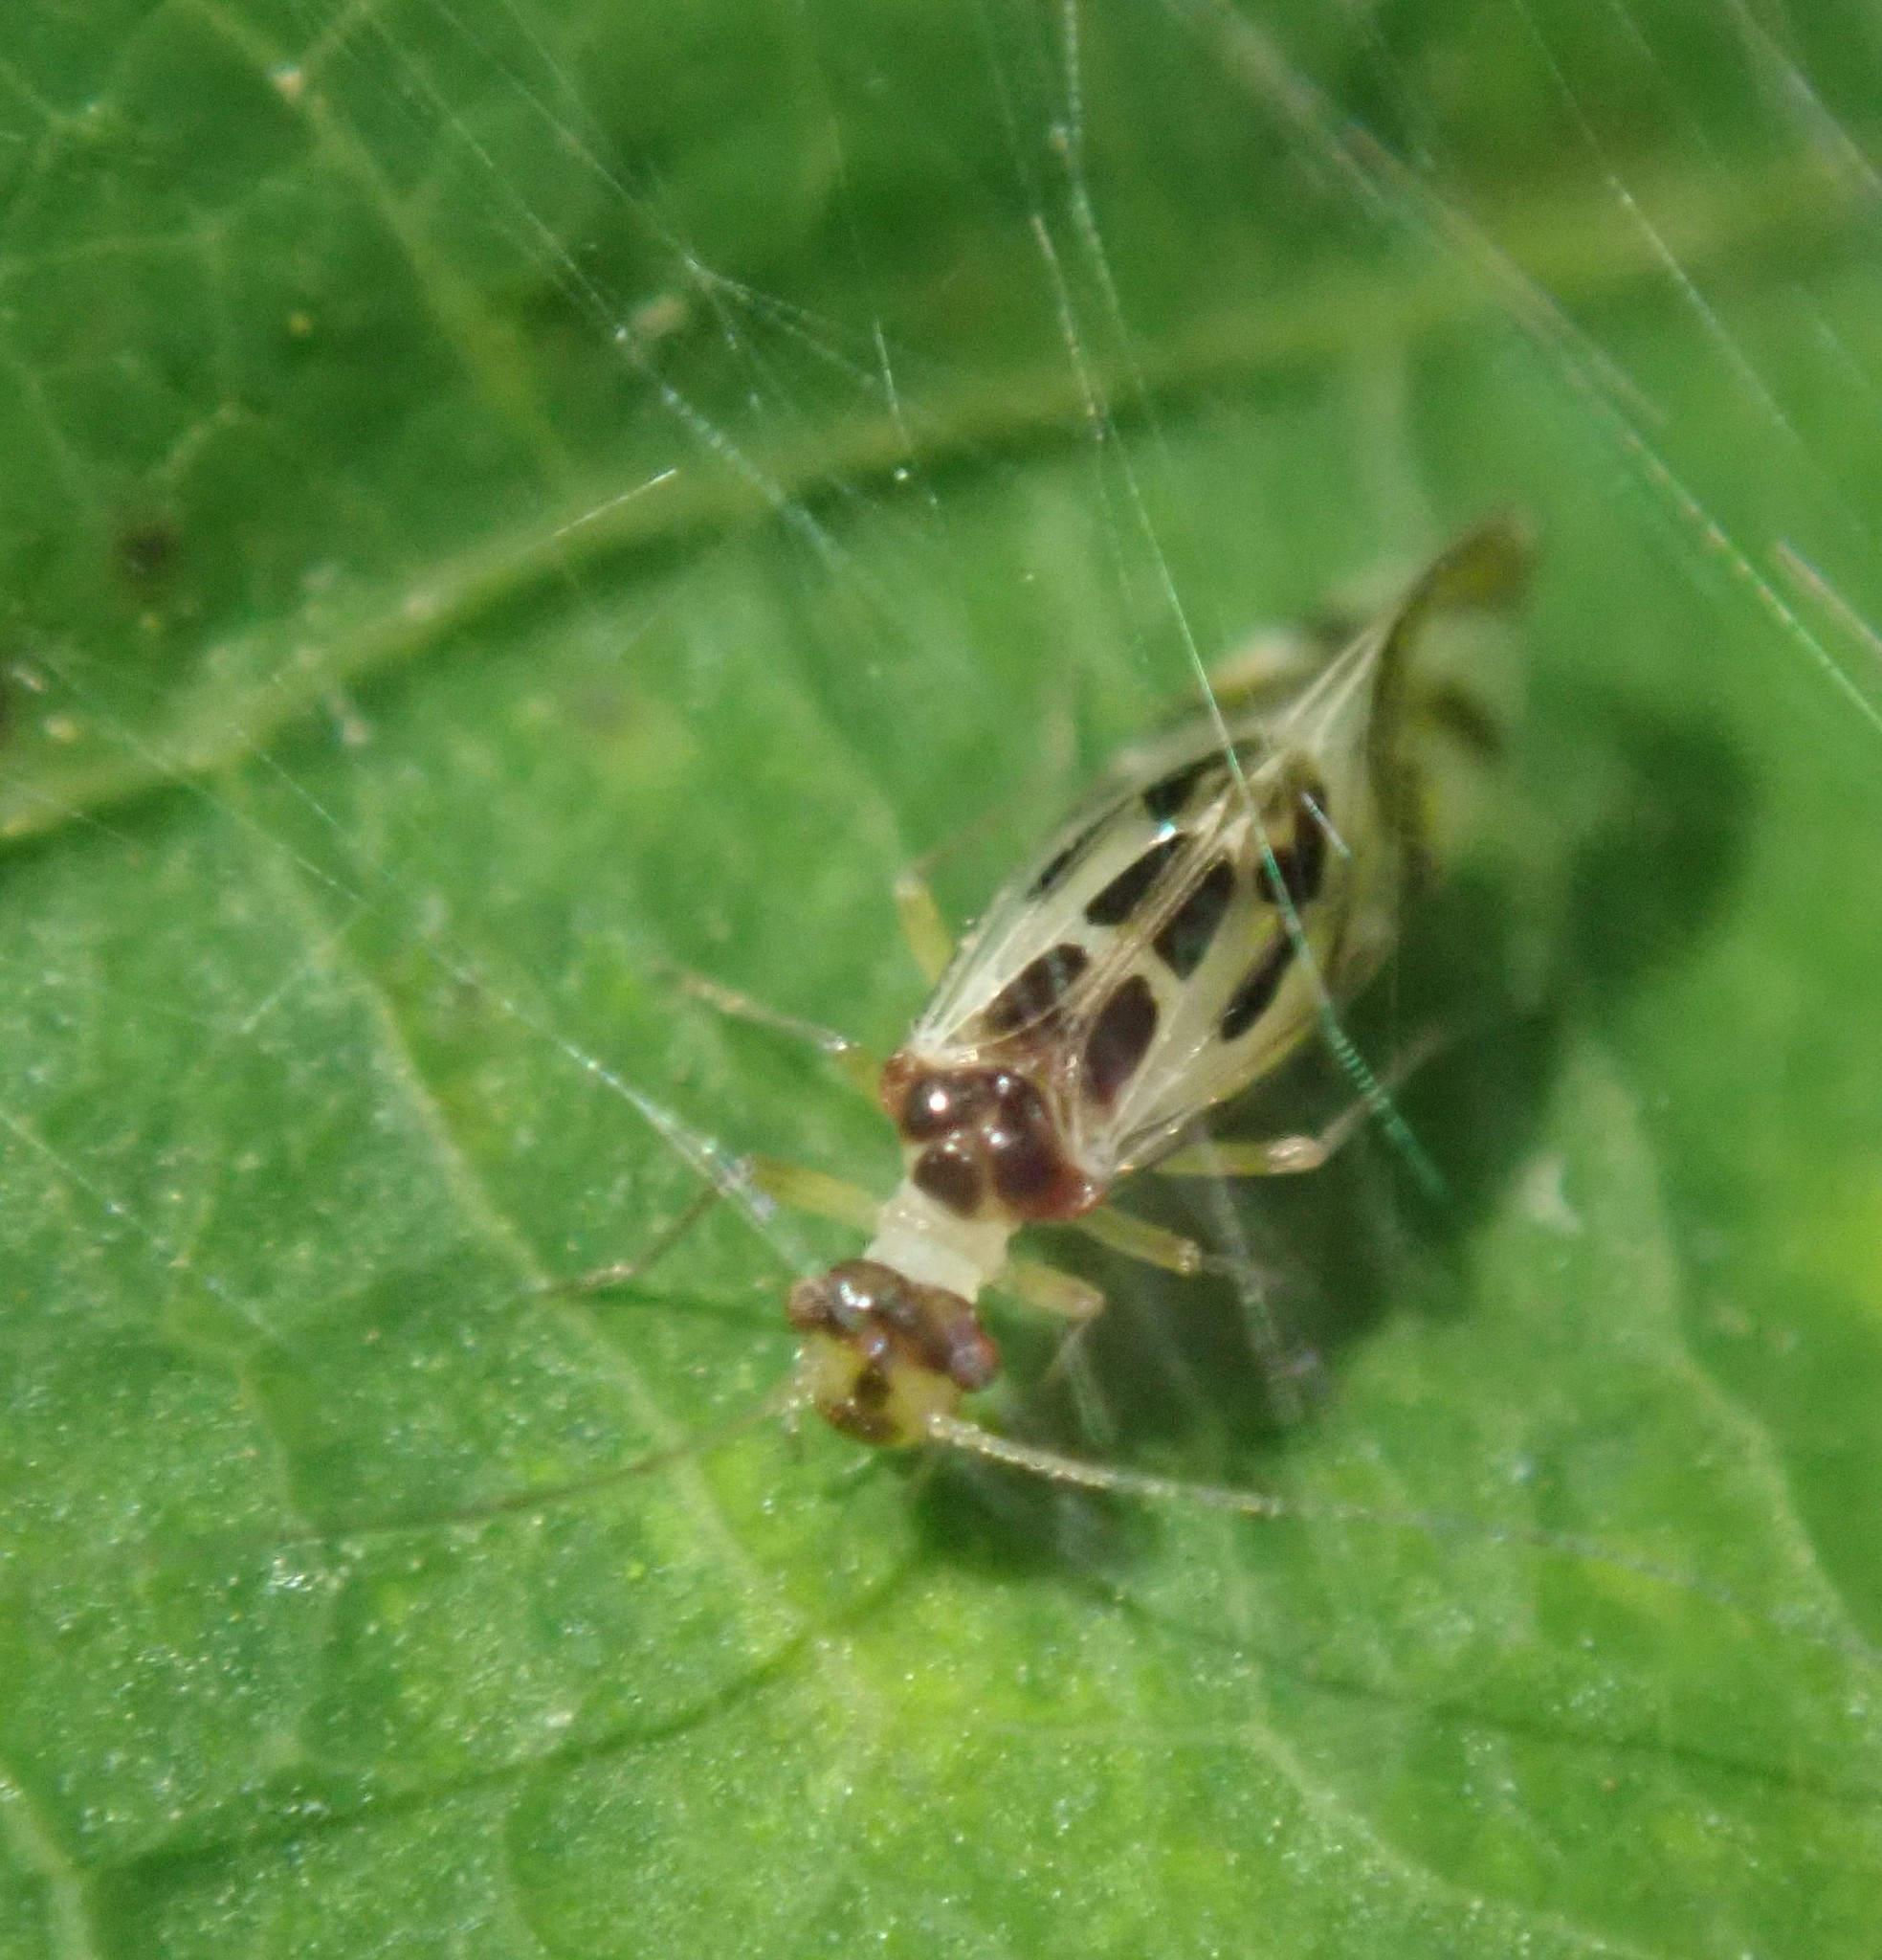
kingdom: Animalia
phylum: Arthropoda
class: Insecta
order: Psocodea
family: Stenopsocidae
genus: Graphopsocus
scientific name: Graphopsocus cruciatus
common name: Lizard bark louse
